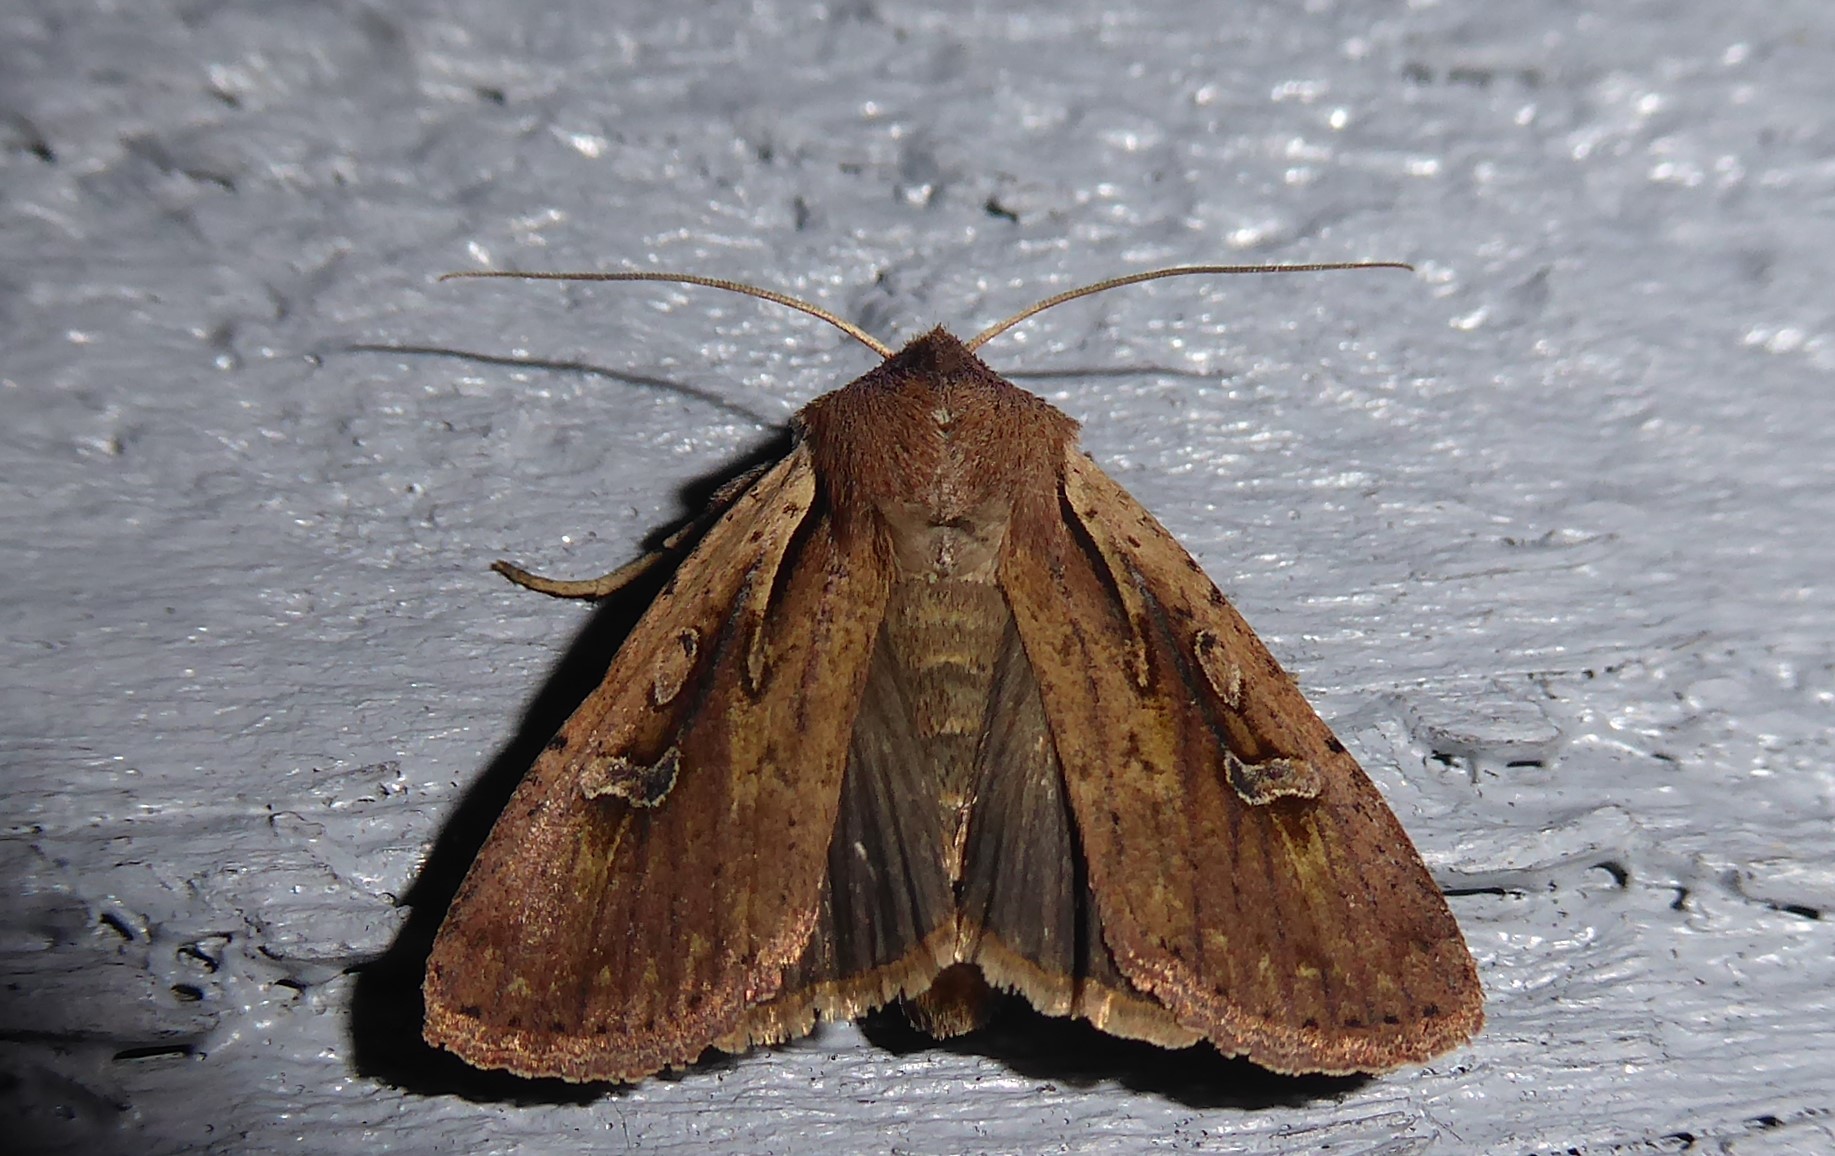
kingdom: Animalia
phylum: Arthropoda
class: Insecta
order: Lepidoptera
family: Noctuidae
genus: Ichneutica
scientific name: Ichneutica atristriga
